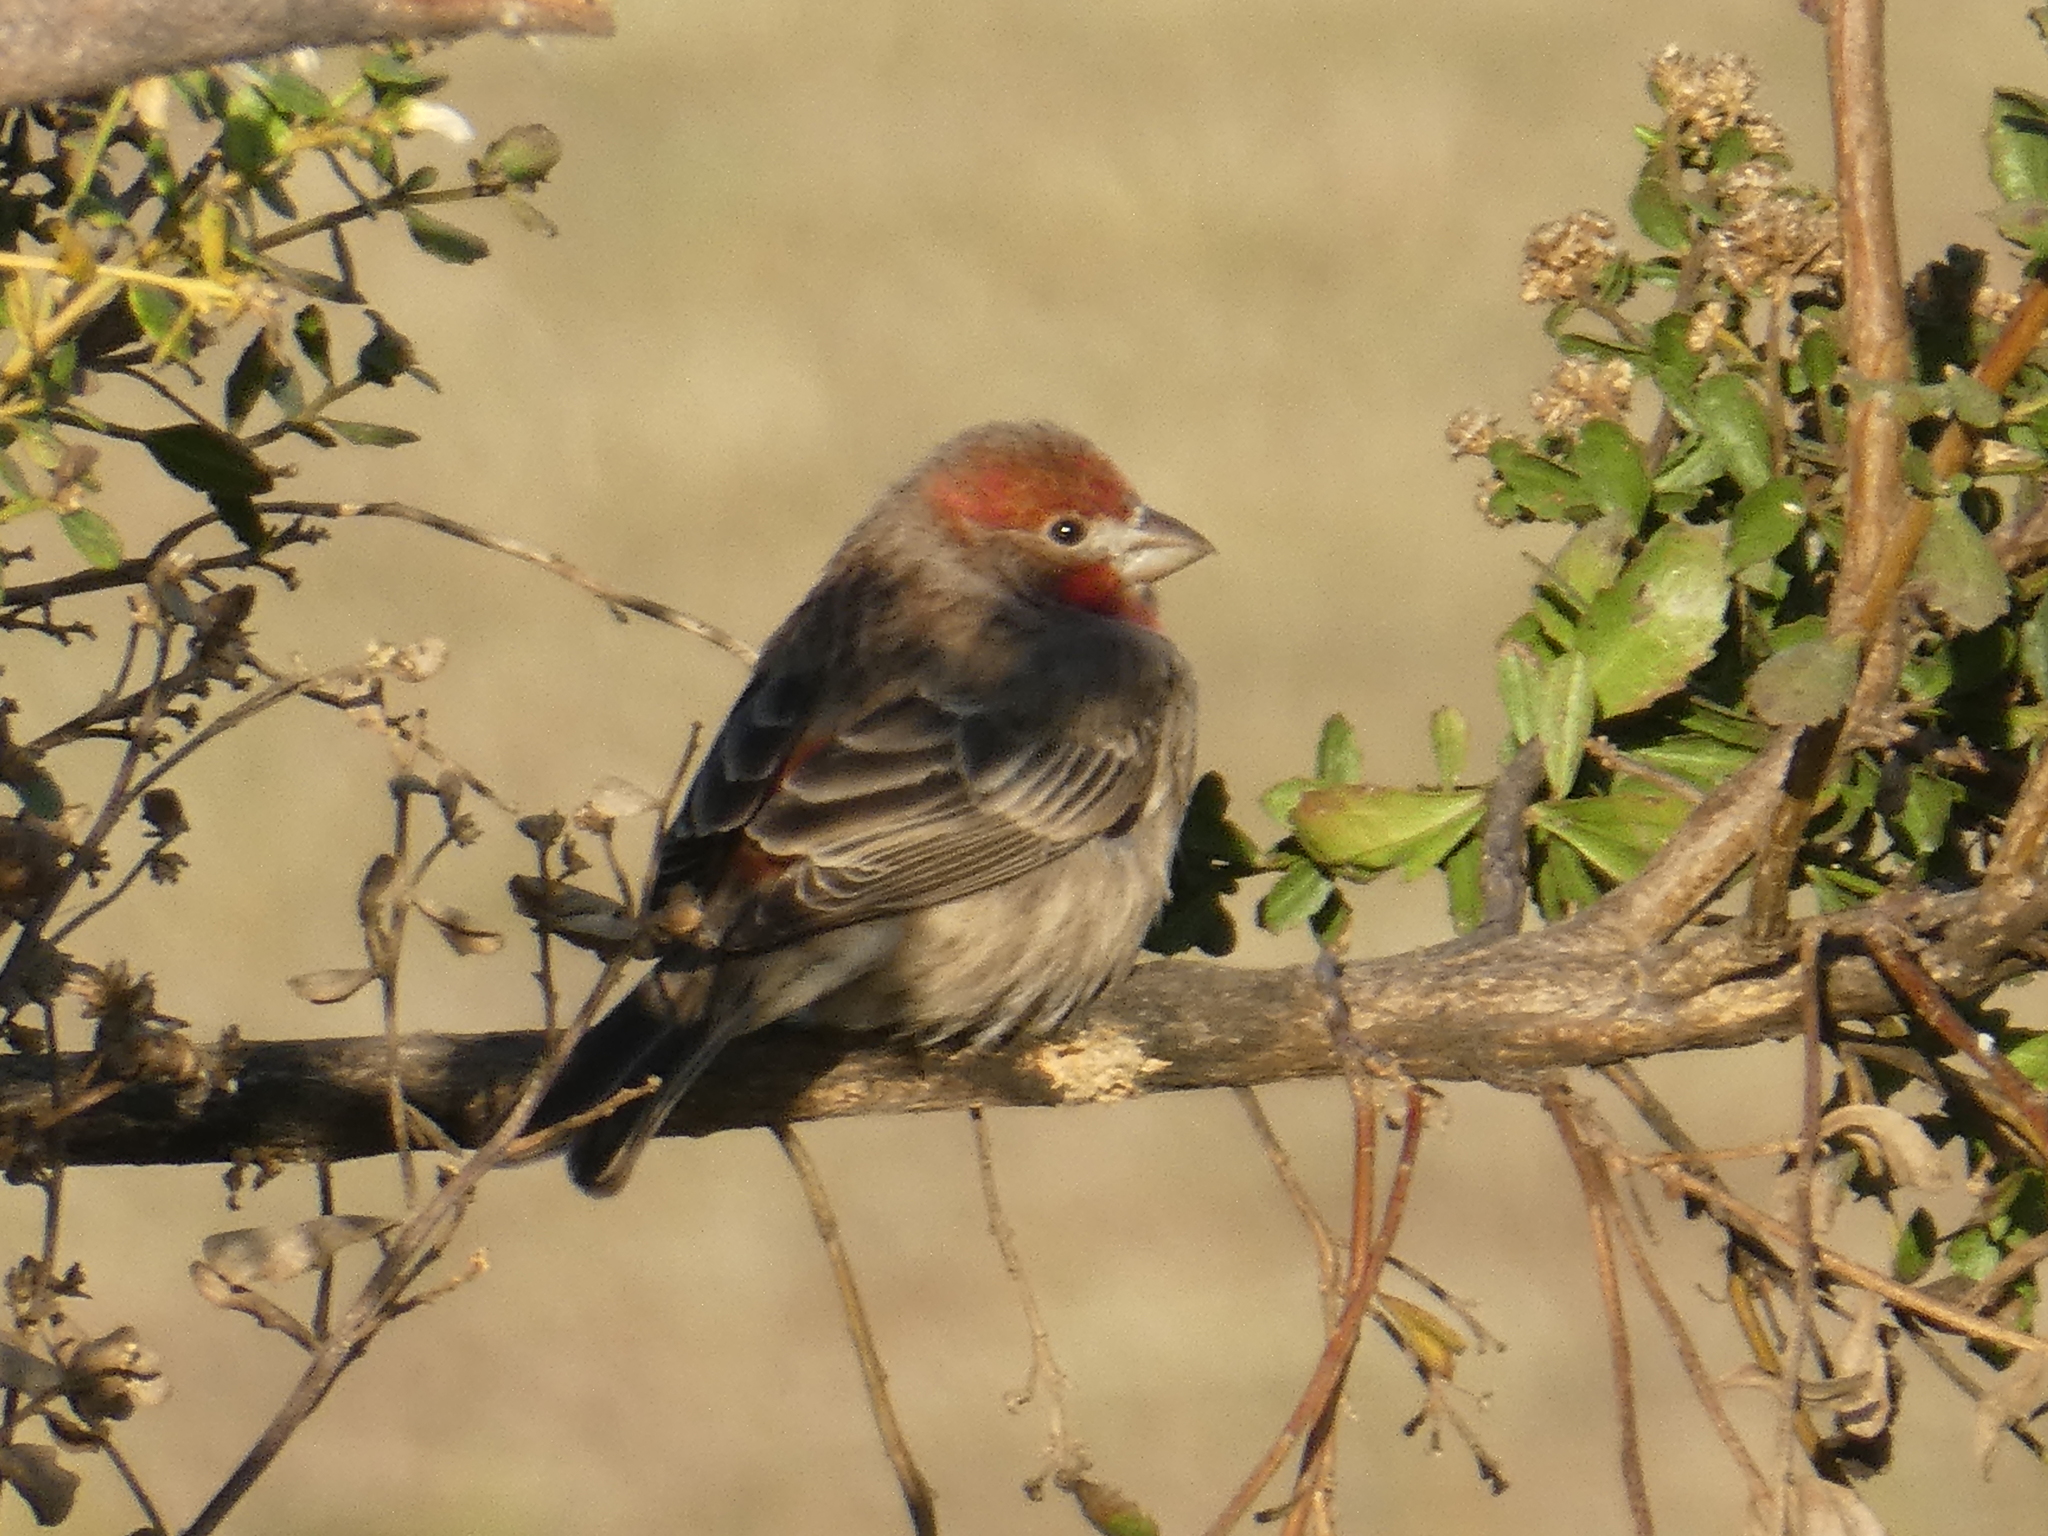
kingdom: Animalia
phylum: Chordata
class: Aves
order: Passeriformes
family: Fringillidae
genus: Haemorhous
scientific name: Haemorhous mexicanus
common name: House finch
